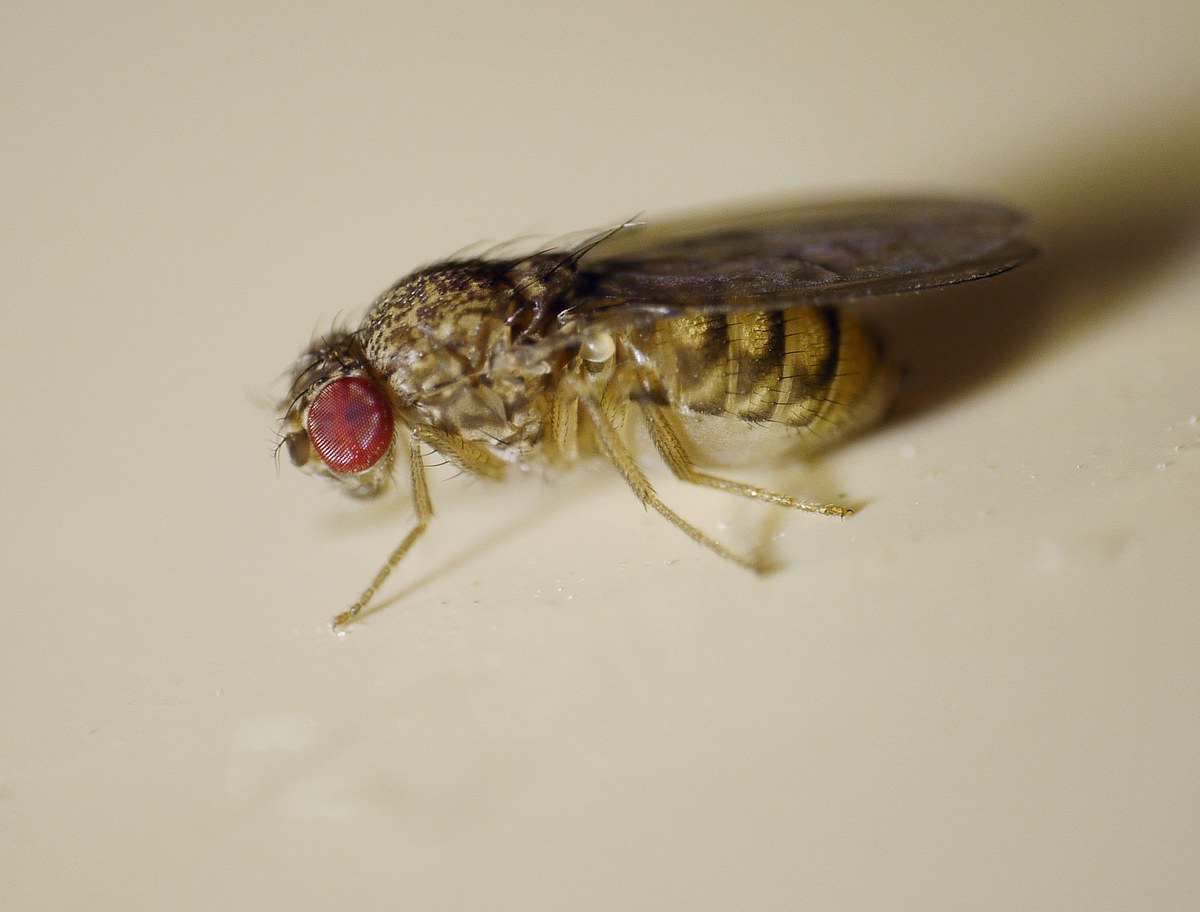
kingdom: Animalia
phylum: Arthropoda
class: Insecta
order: Diptera
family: Drosophilidae
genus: Drosophila
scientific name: Drosophila repleta
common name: Pomace fly
